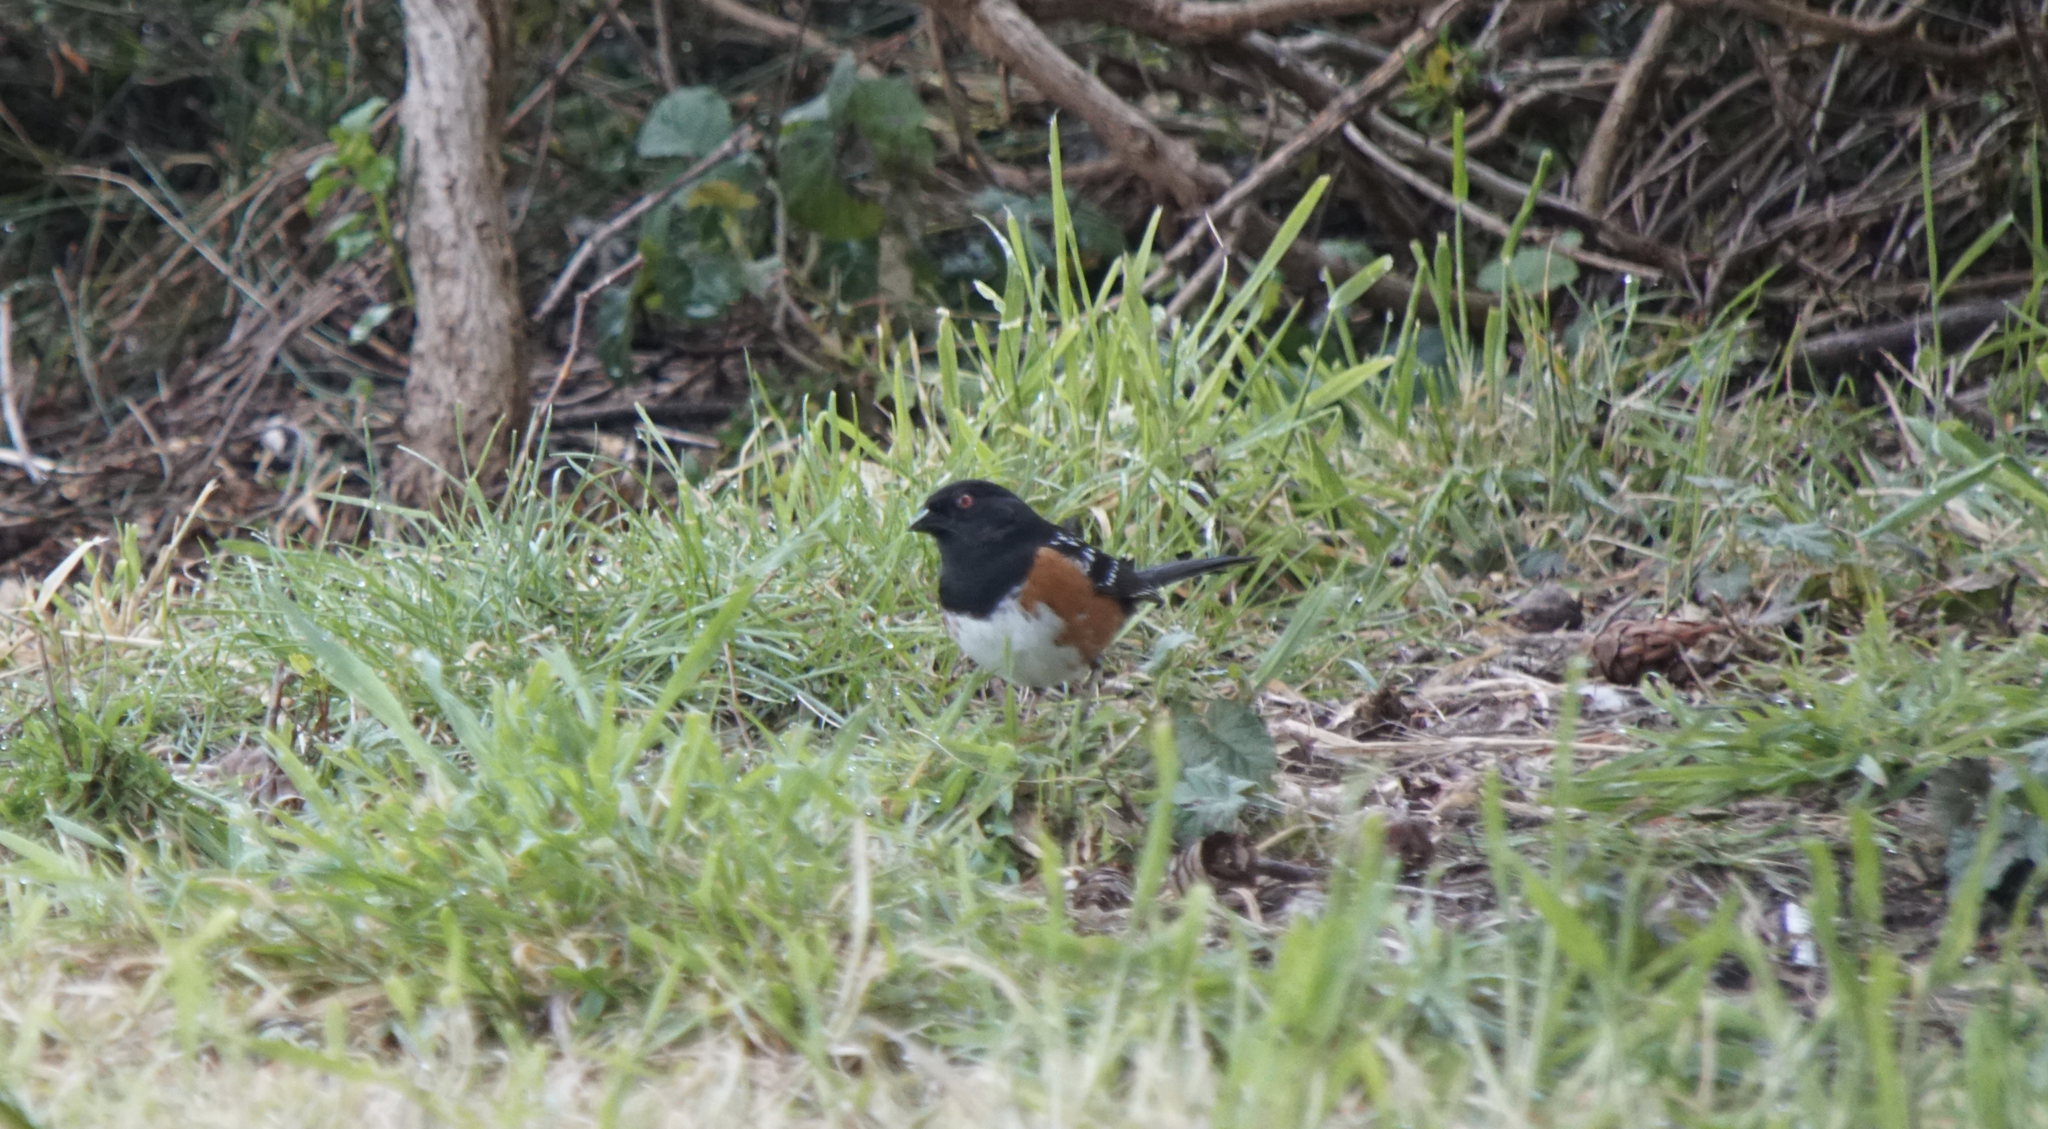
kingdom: Animalia
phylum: Chordata
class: Aves
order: Passeriformes
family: Passerellidae
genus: Pipilo
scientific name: Pipilo maculatus
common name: Spotted towhee
